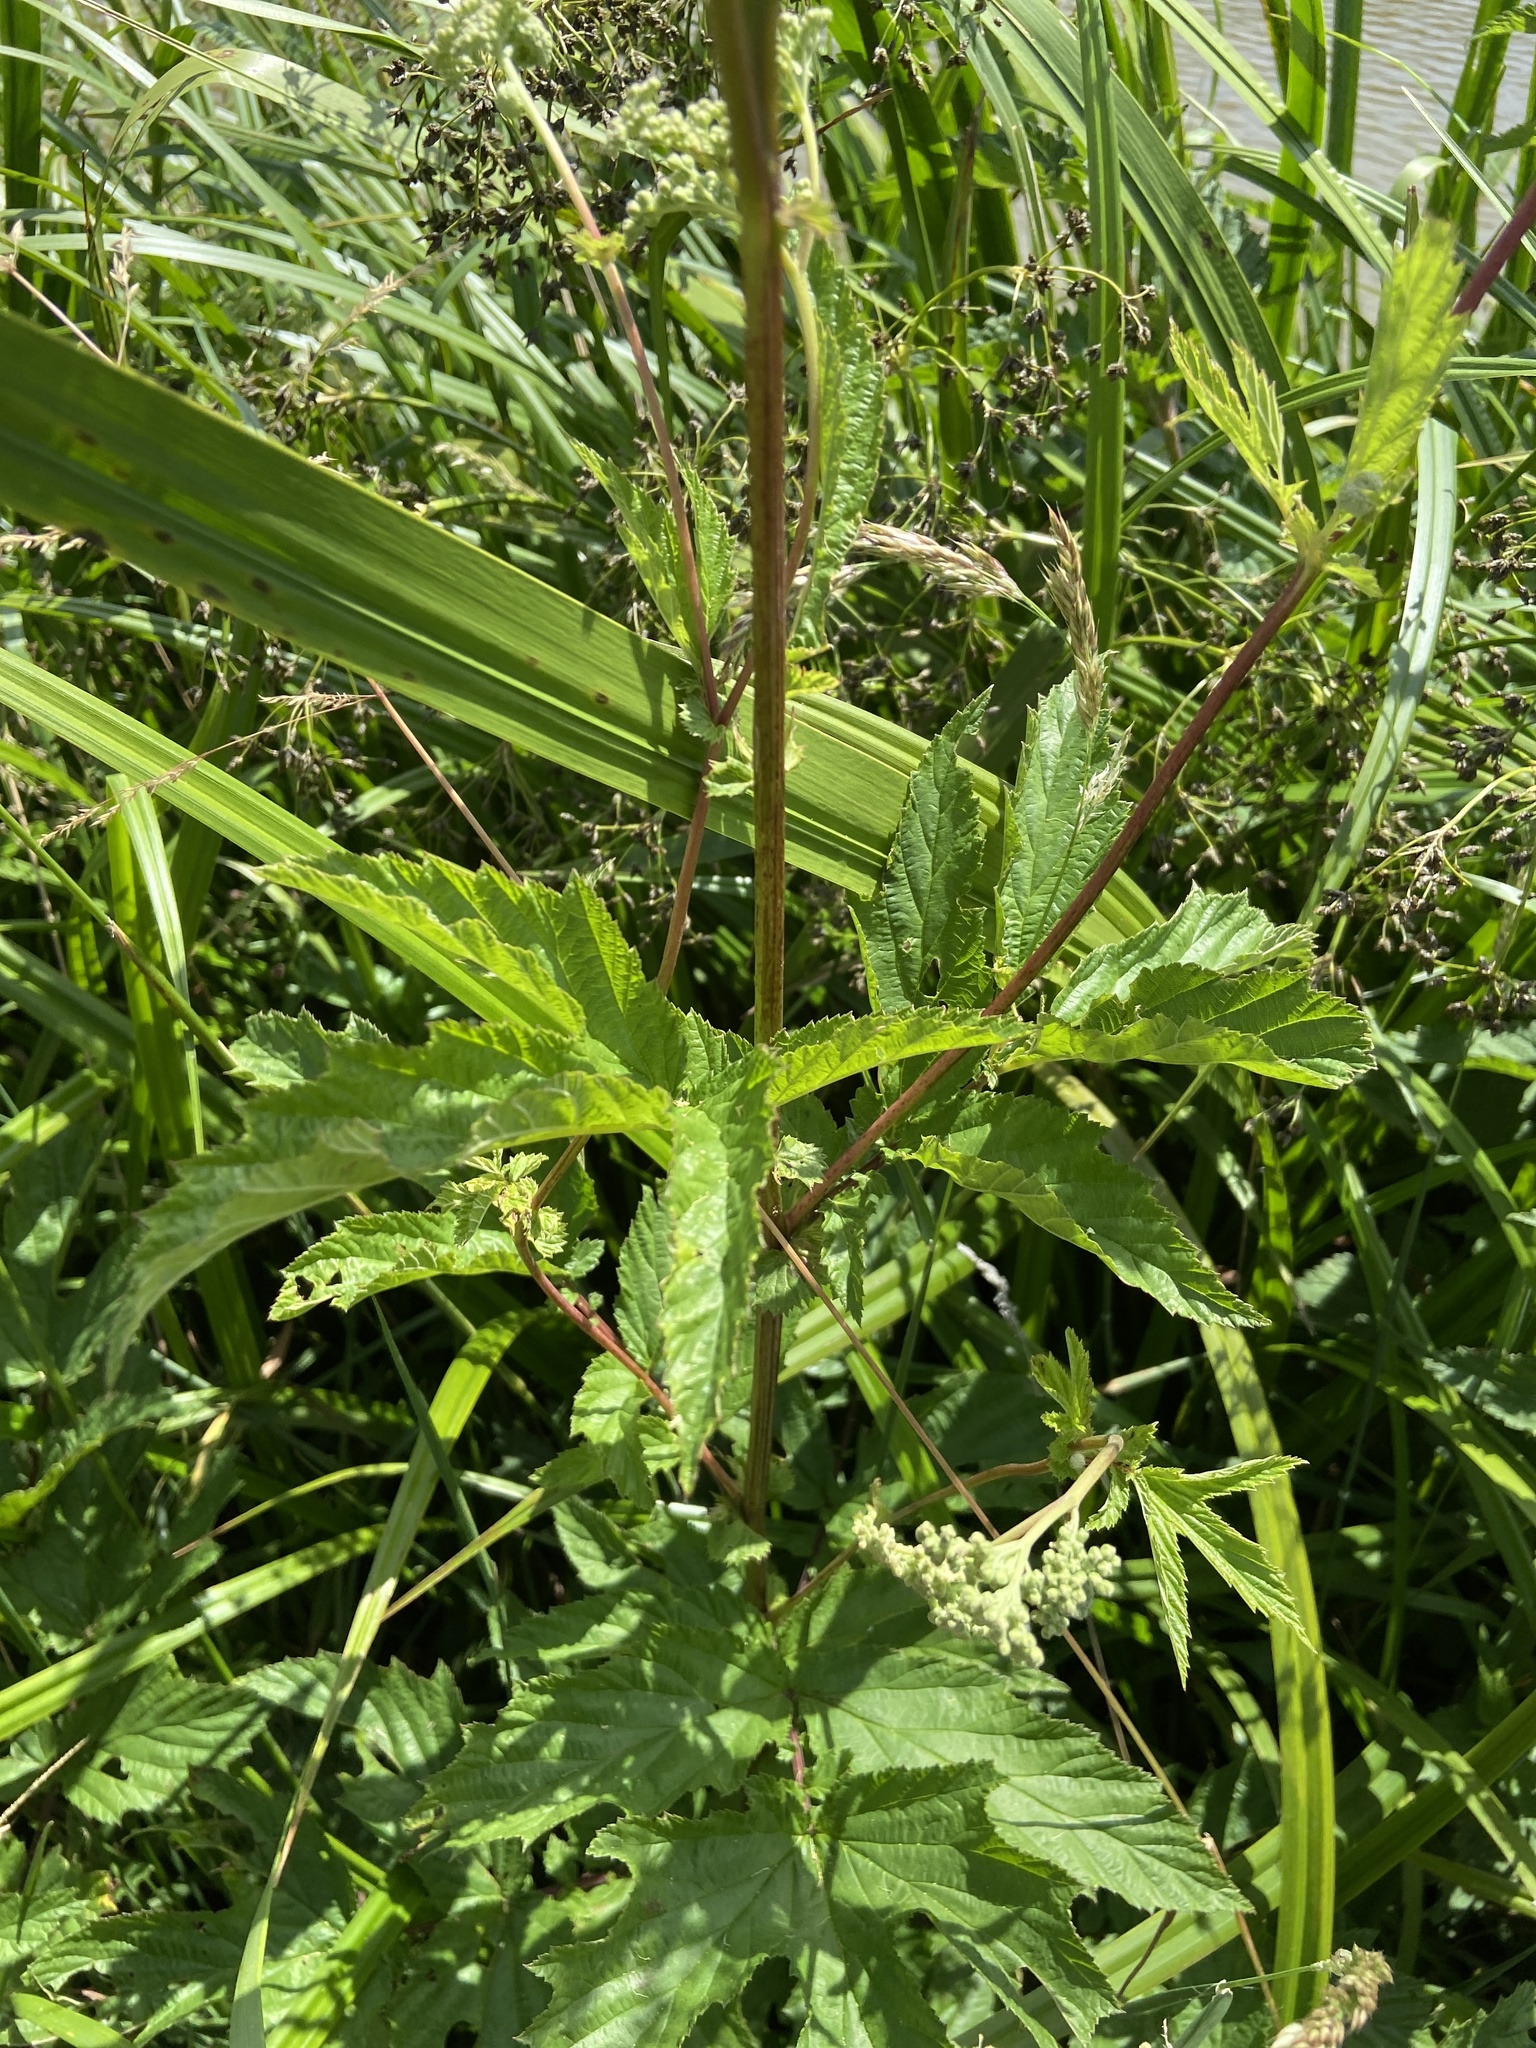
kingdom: Plantae
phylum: Tracheophyta
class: Magnoliopsida
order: Rosales
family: Rosaceae
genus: Filipendula
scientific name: Filipendula ulmaria
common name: Meadowsweet
